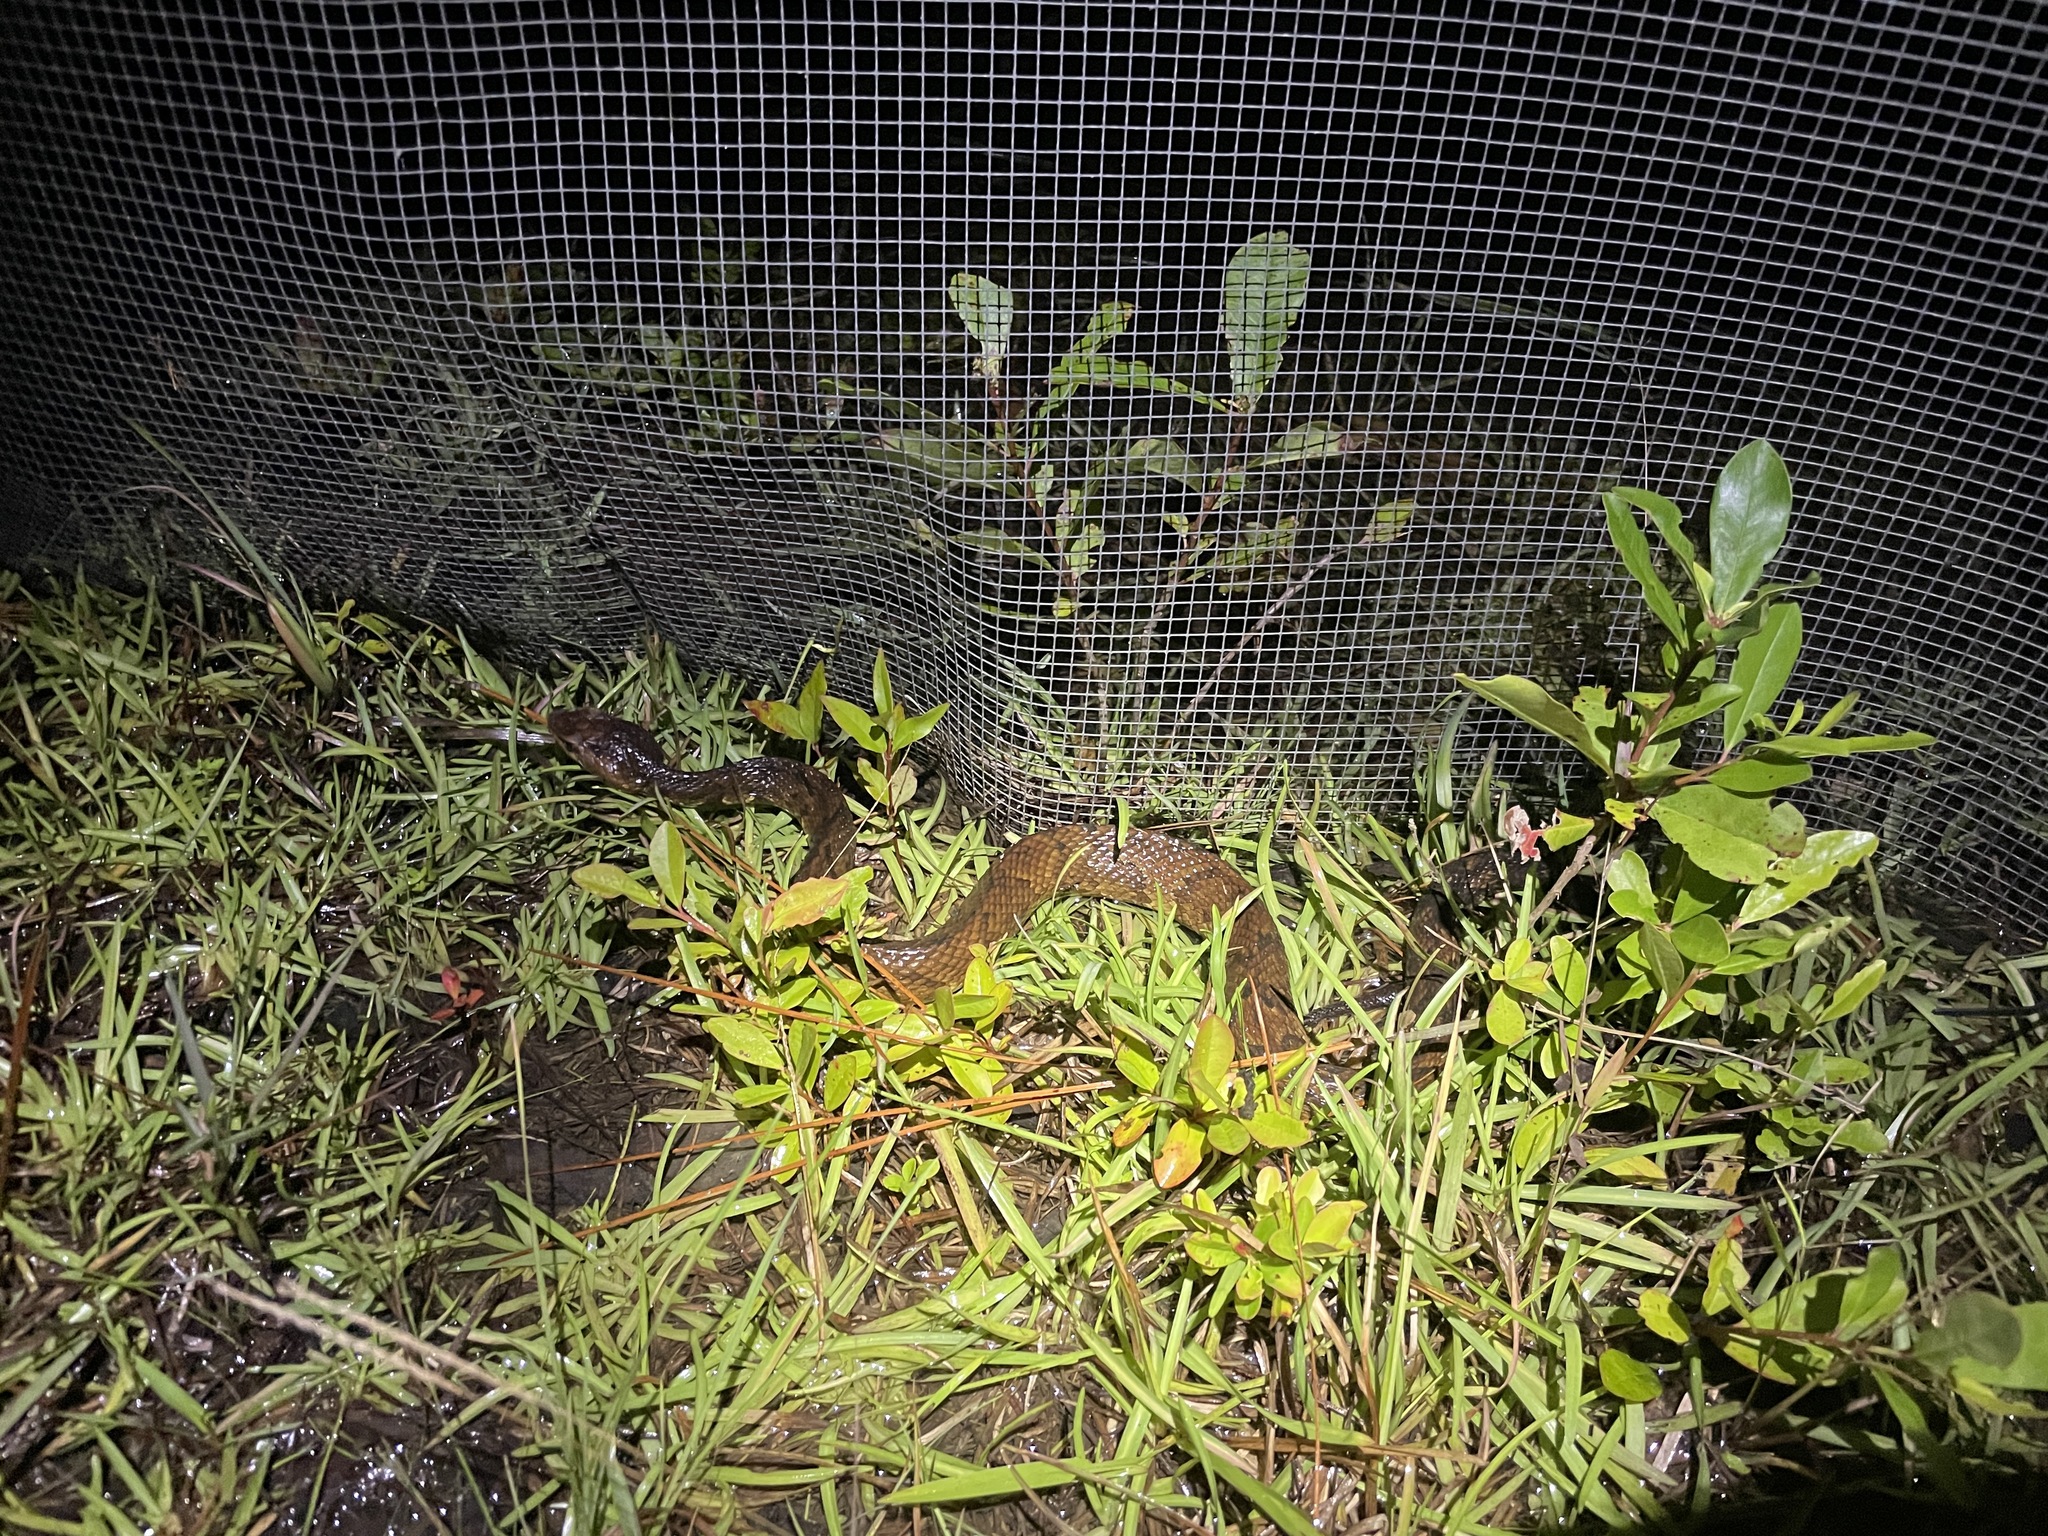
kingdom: Animalia
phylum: Chordata
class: Squamata
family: Viperidae
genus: Agkistrodon
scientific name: Agkistrodon piscivorus
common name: Cottonmouth
